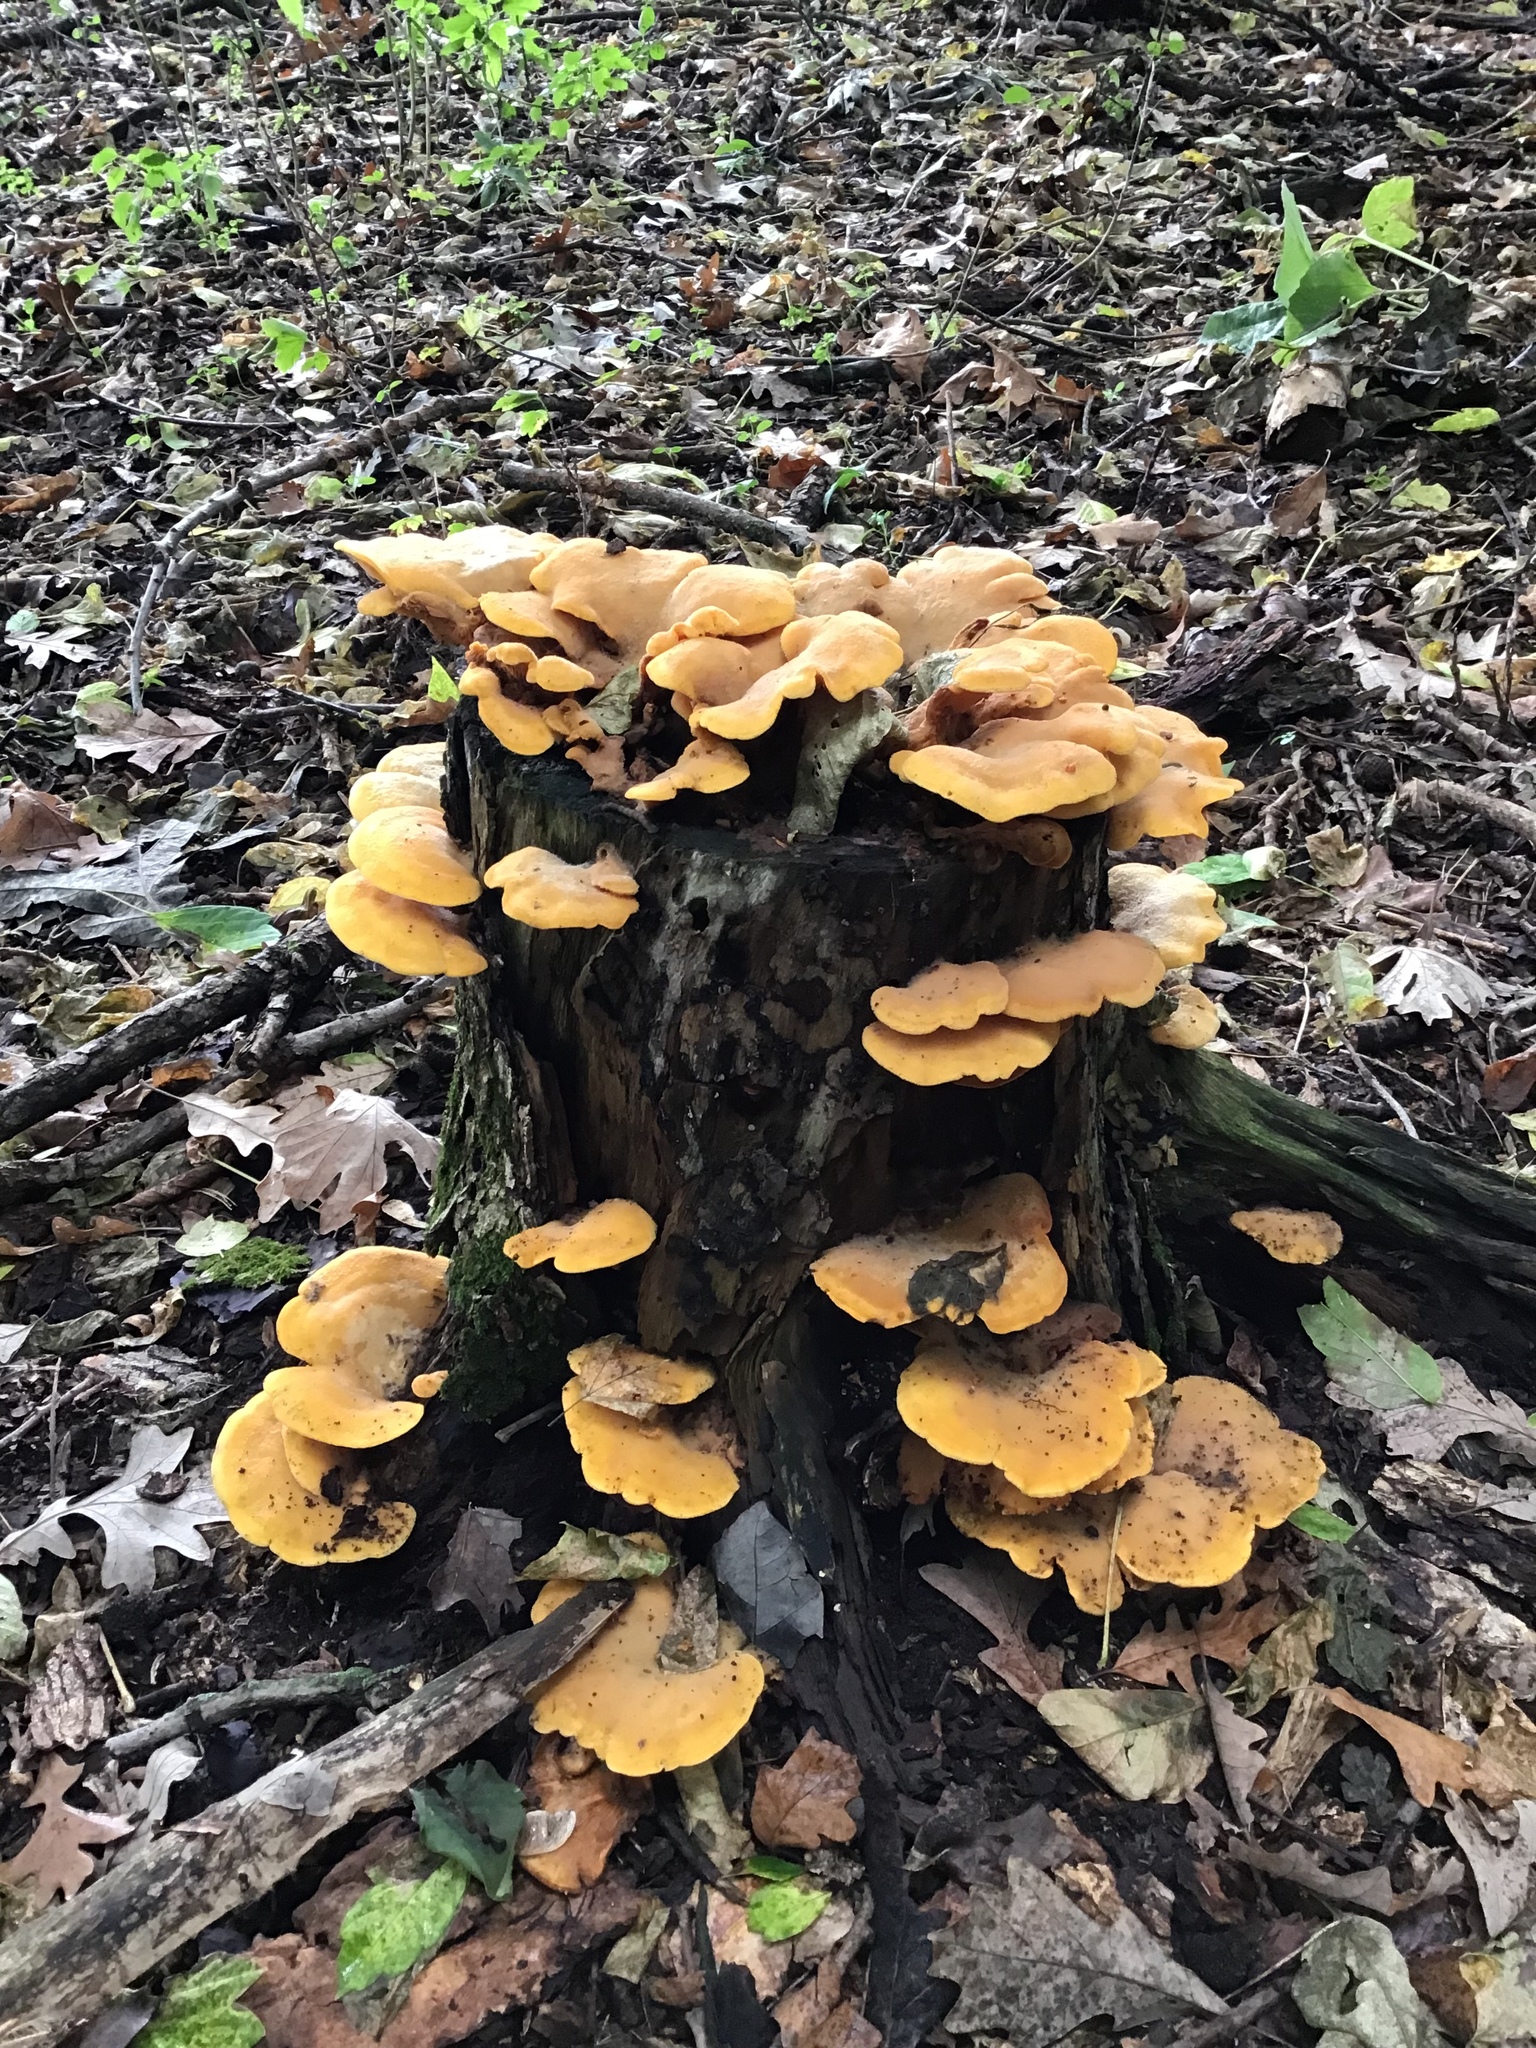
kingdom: Fungi
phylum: Basidiomycota
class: Agaricomycetes
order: Agaricales
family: Phyllotopsidaceae
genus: Phyllotopsis
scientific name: Phyllotopsis nidulans
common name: Orange mock oyster
